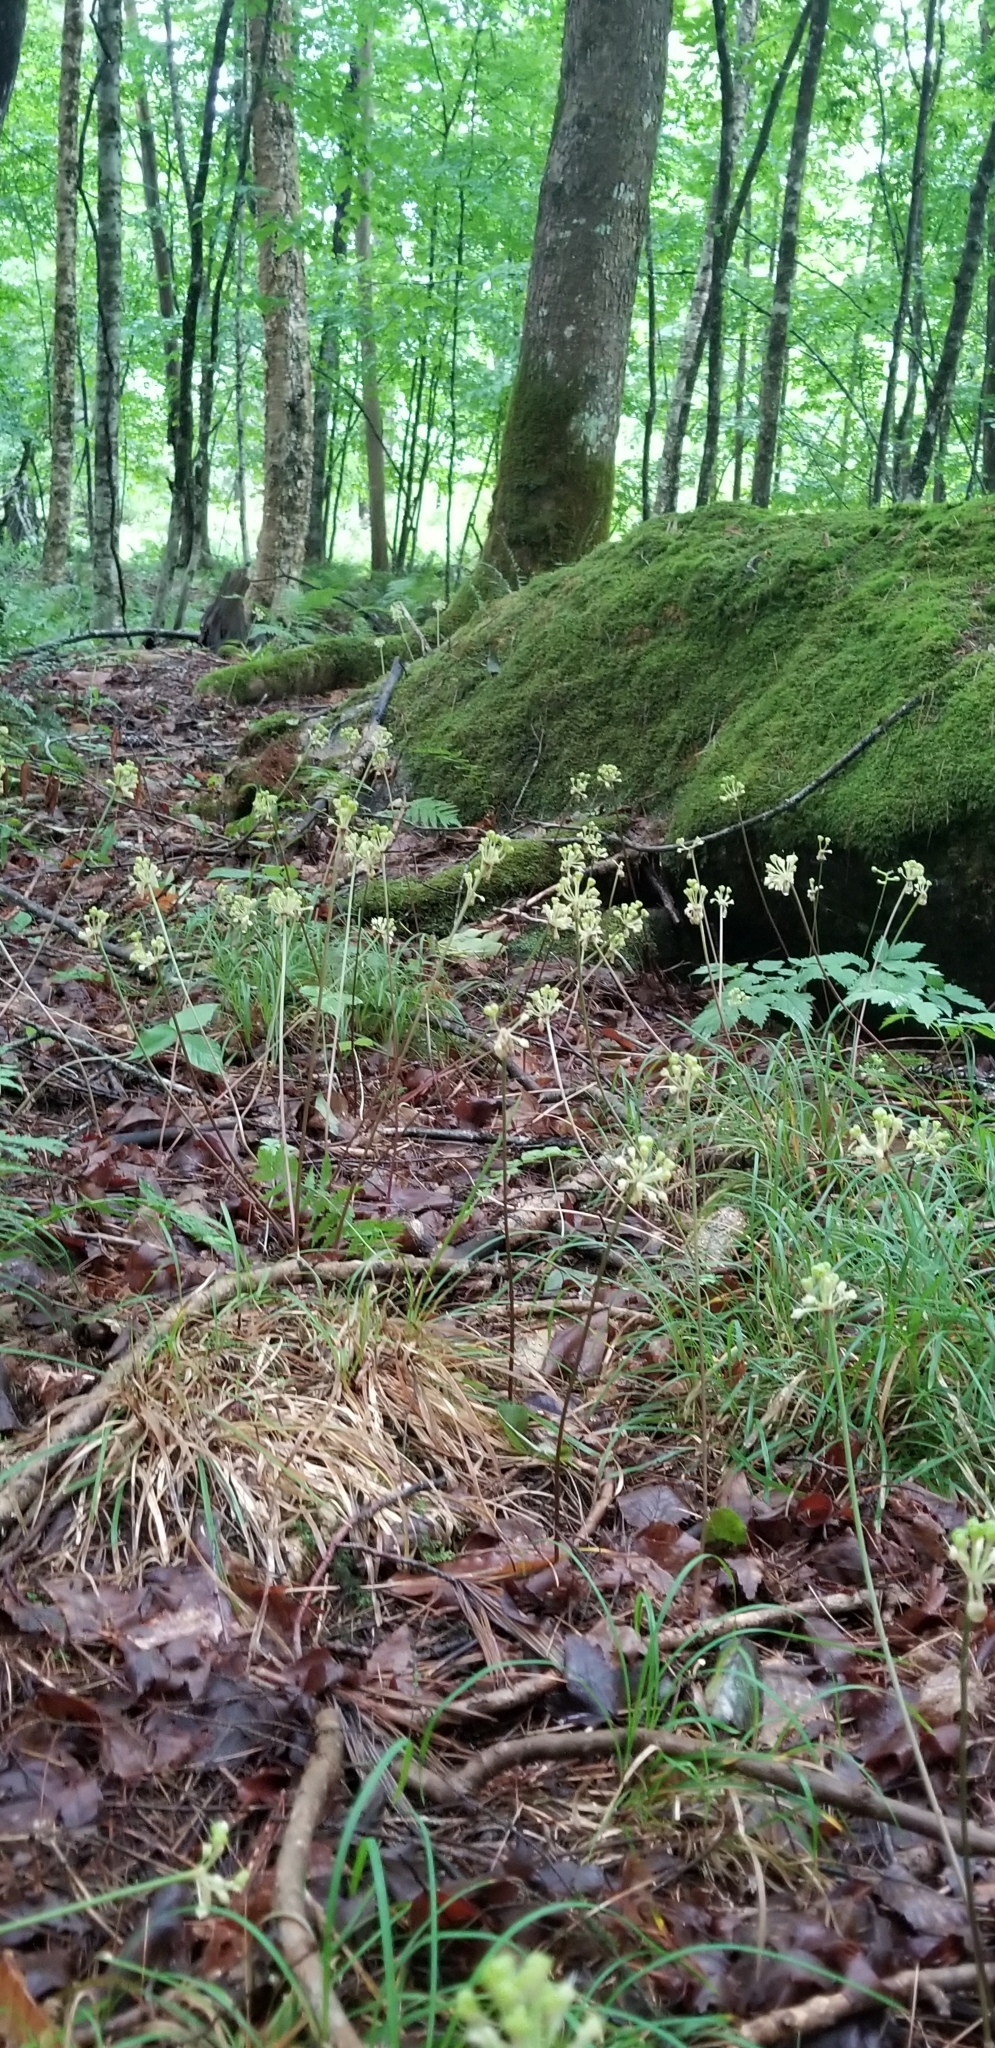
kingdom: Plantae
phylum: Tracheophyta
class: Liliopsida
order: Asparagales
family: Amaryllidaceae
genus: Allium
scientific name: Allium tricoccum
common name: Ramp
